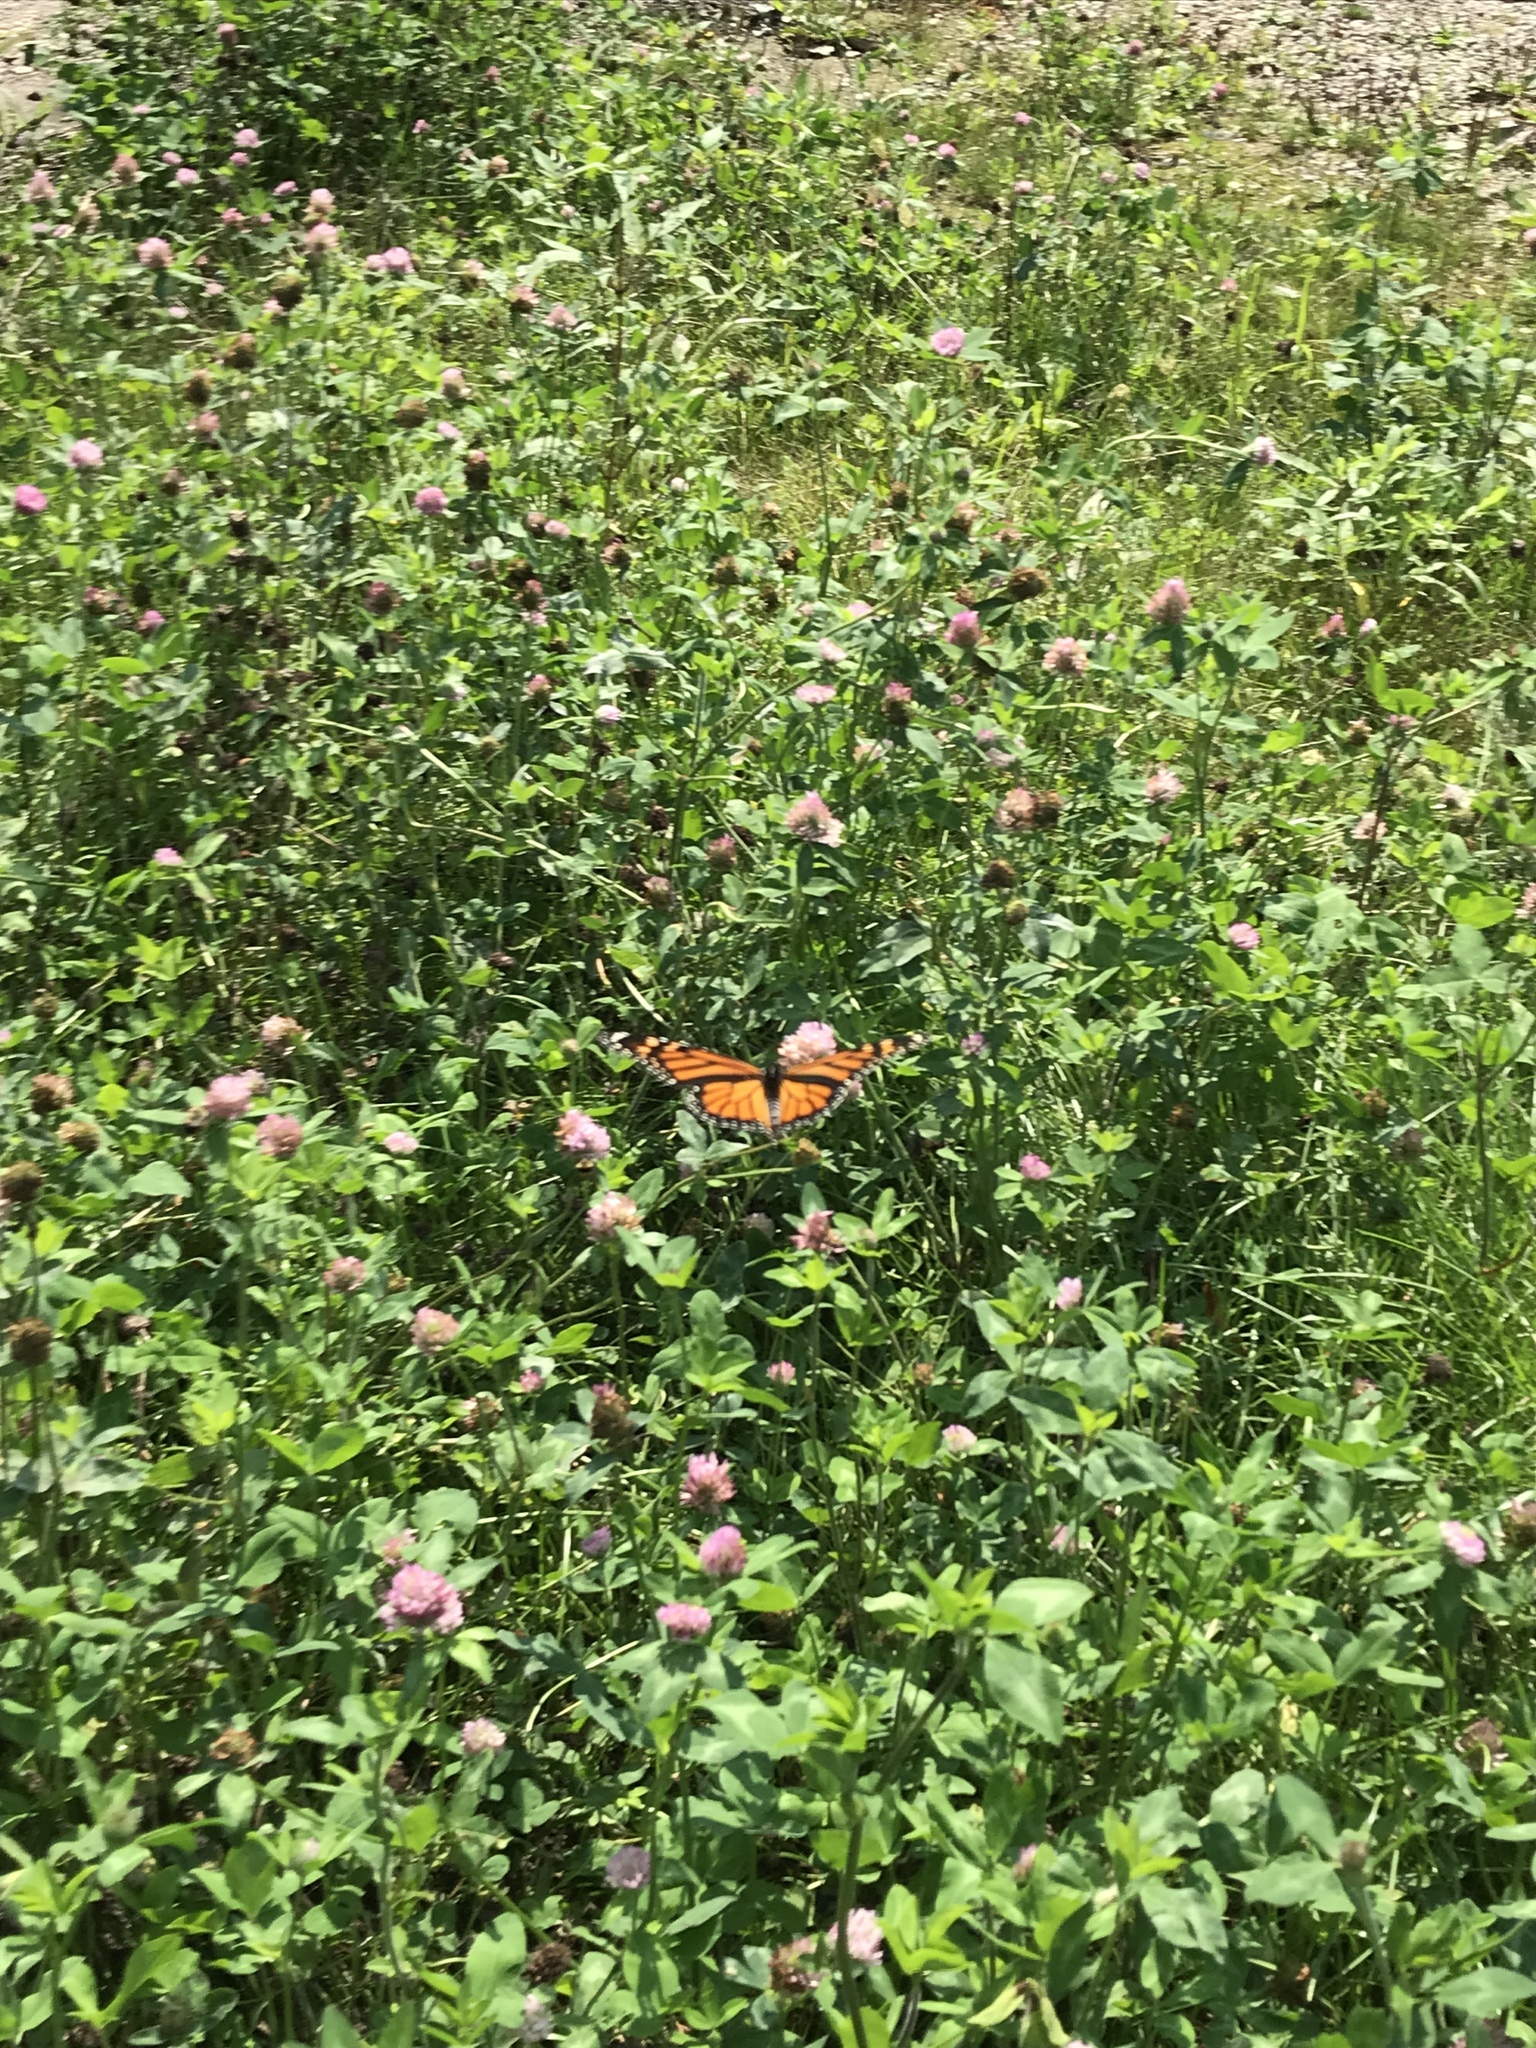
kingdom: Animalia
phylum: Arthropoda
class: Insecta
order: Lepidoptera
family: Nymphalidae
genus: Danaus
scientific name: Danaus plexippus
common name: Monarch
